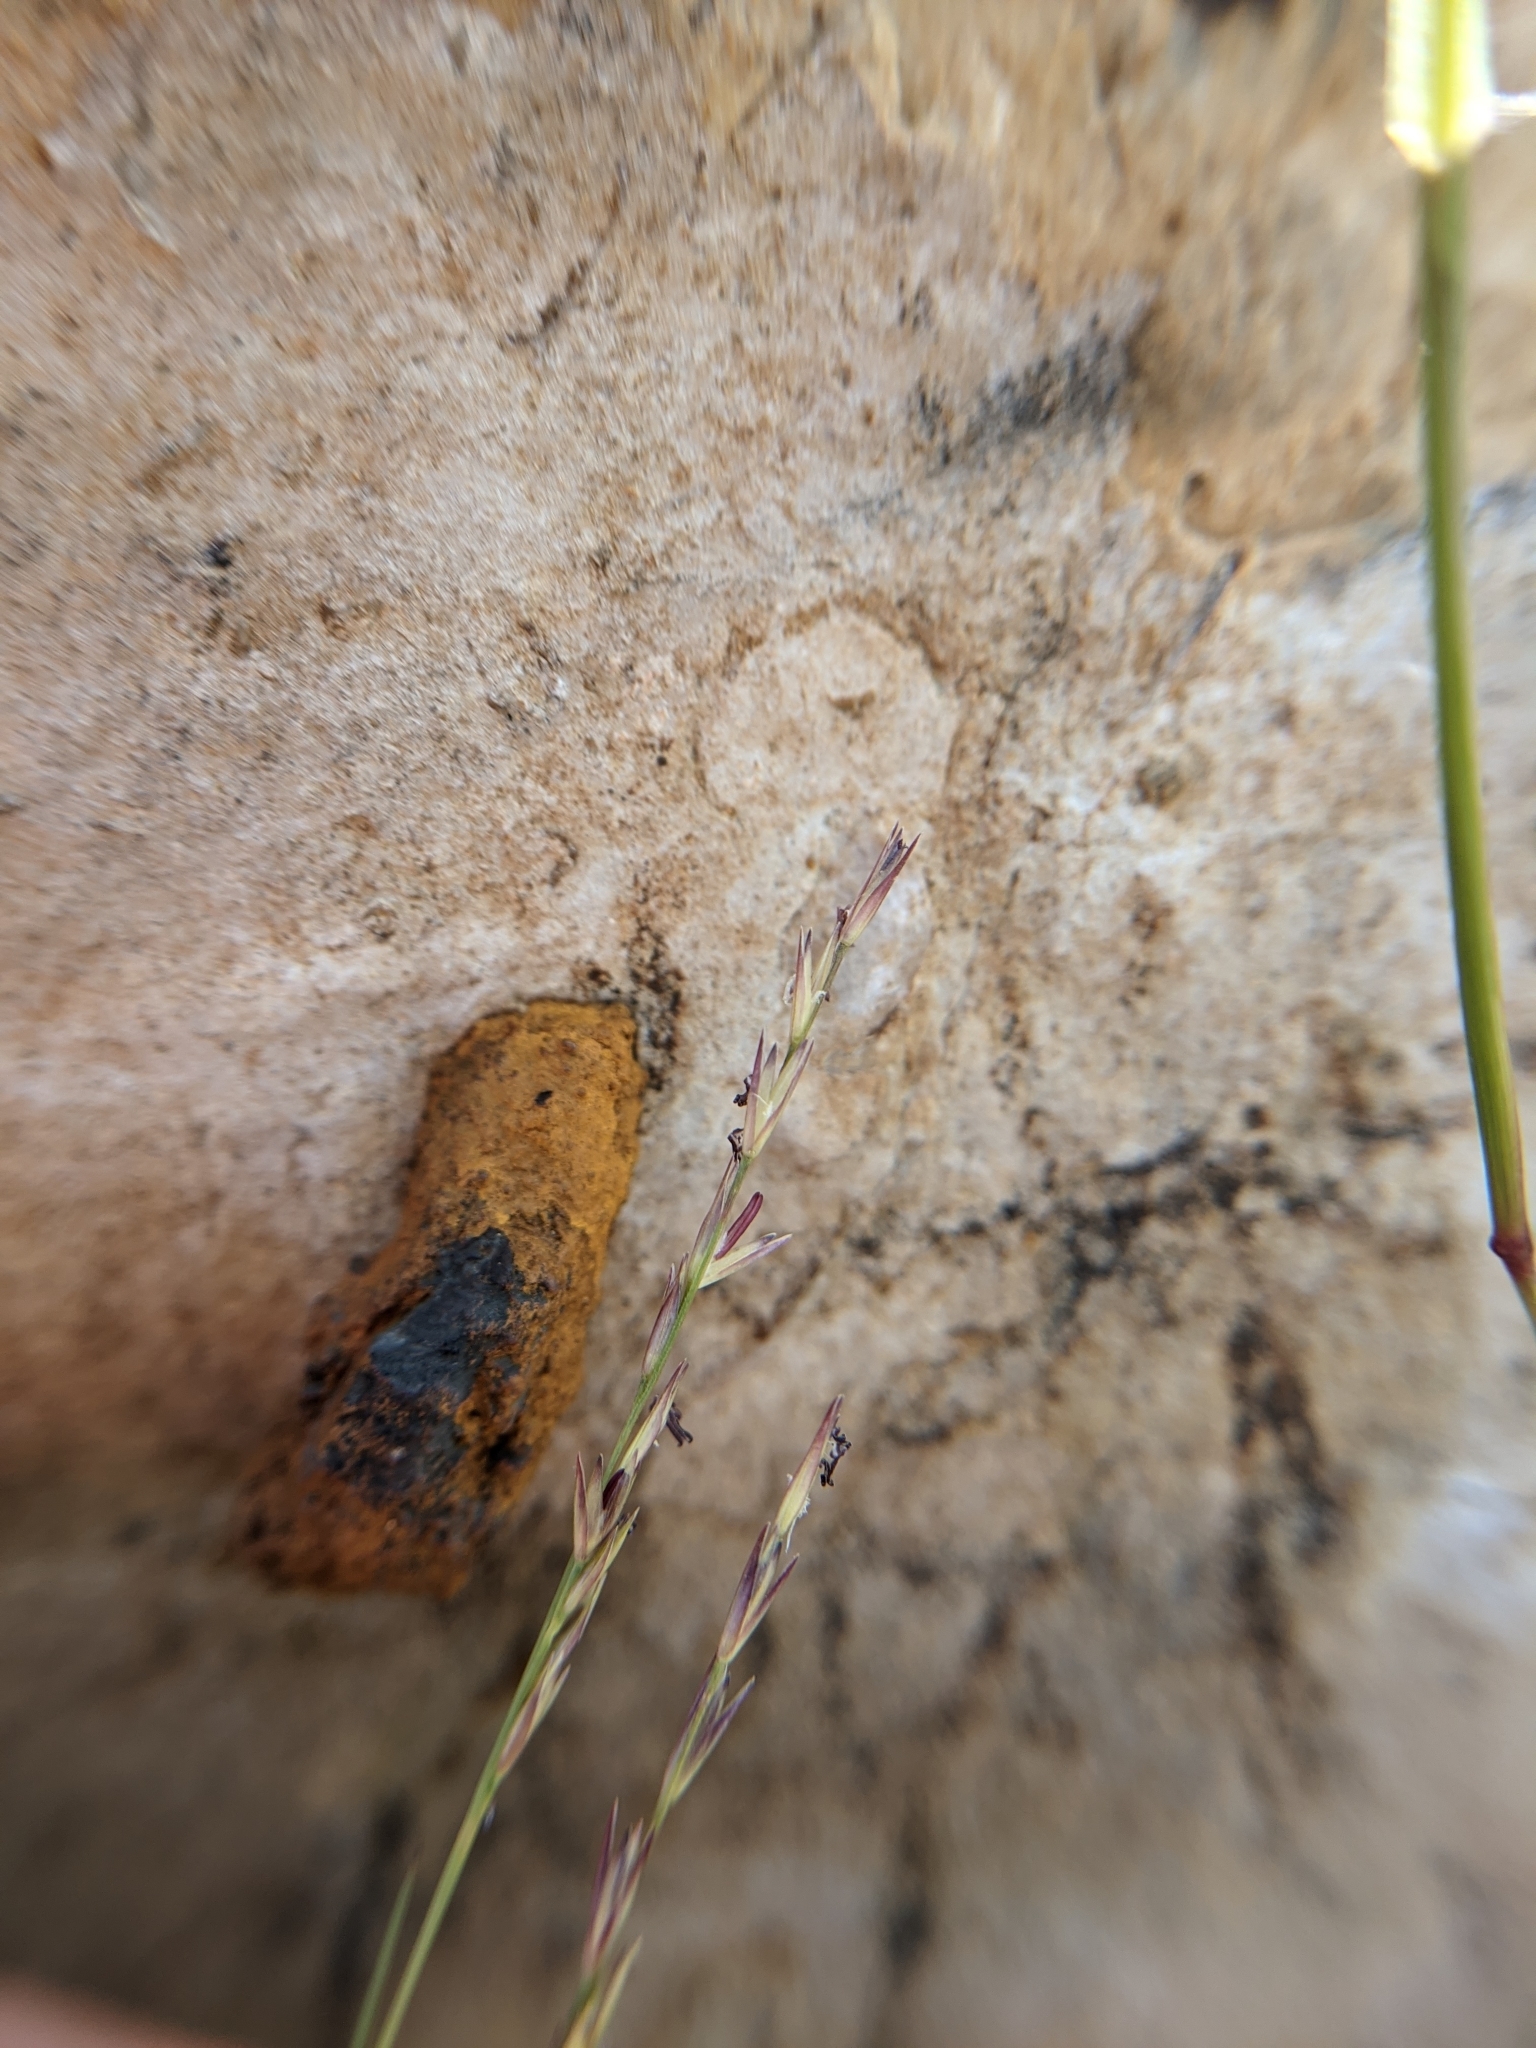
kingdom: Plantae
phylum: Tracheophyta
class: Liliopsida
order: Poales
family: Poaceae
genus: Sporobolus
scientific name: Sporobolus vaginiflorus
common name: Poverty dropseed
